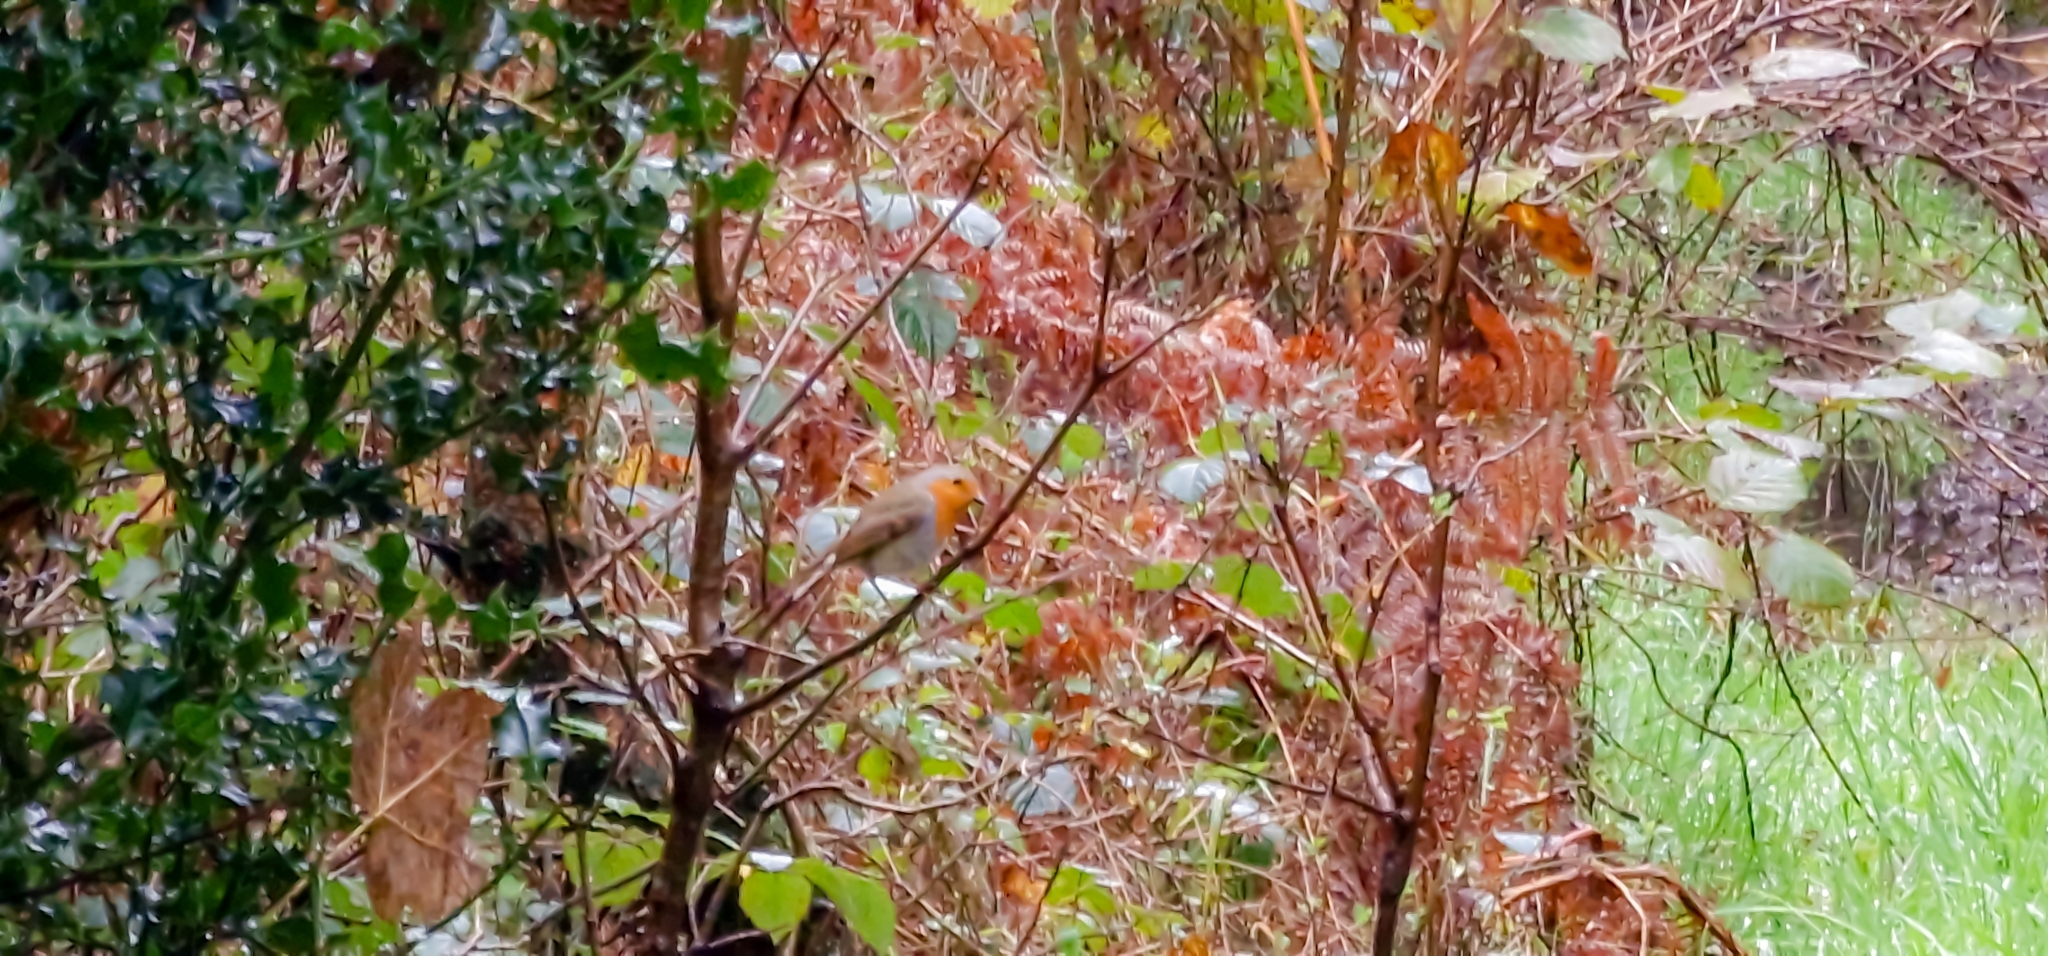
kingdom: Animalia
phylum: Chordata
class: Aves
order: Passeriformes
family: Muscicapidae
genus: Erithacus
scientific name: Erithacus rubecula
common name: European robin
